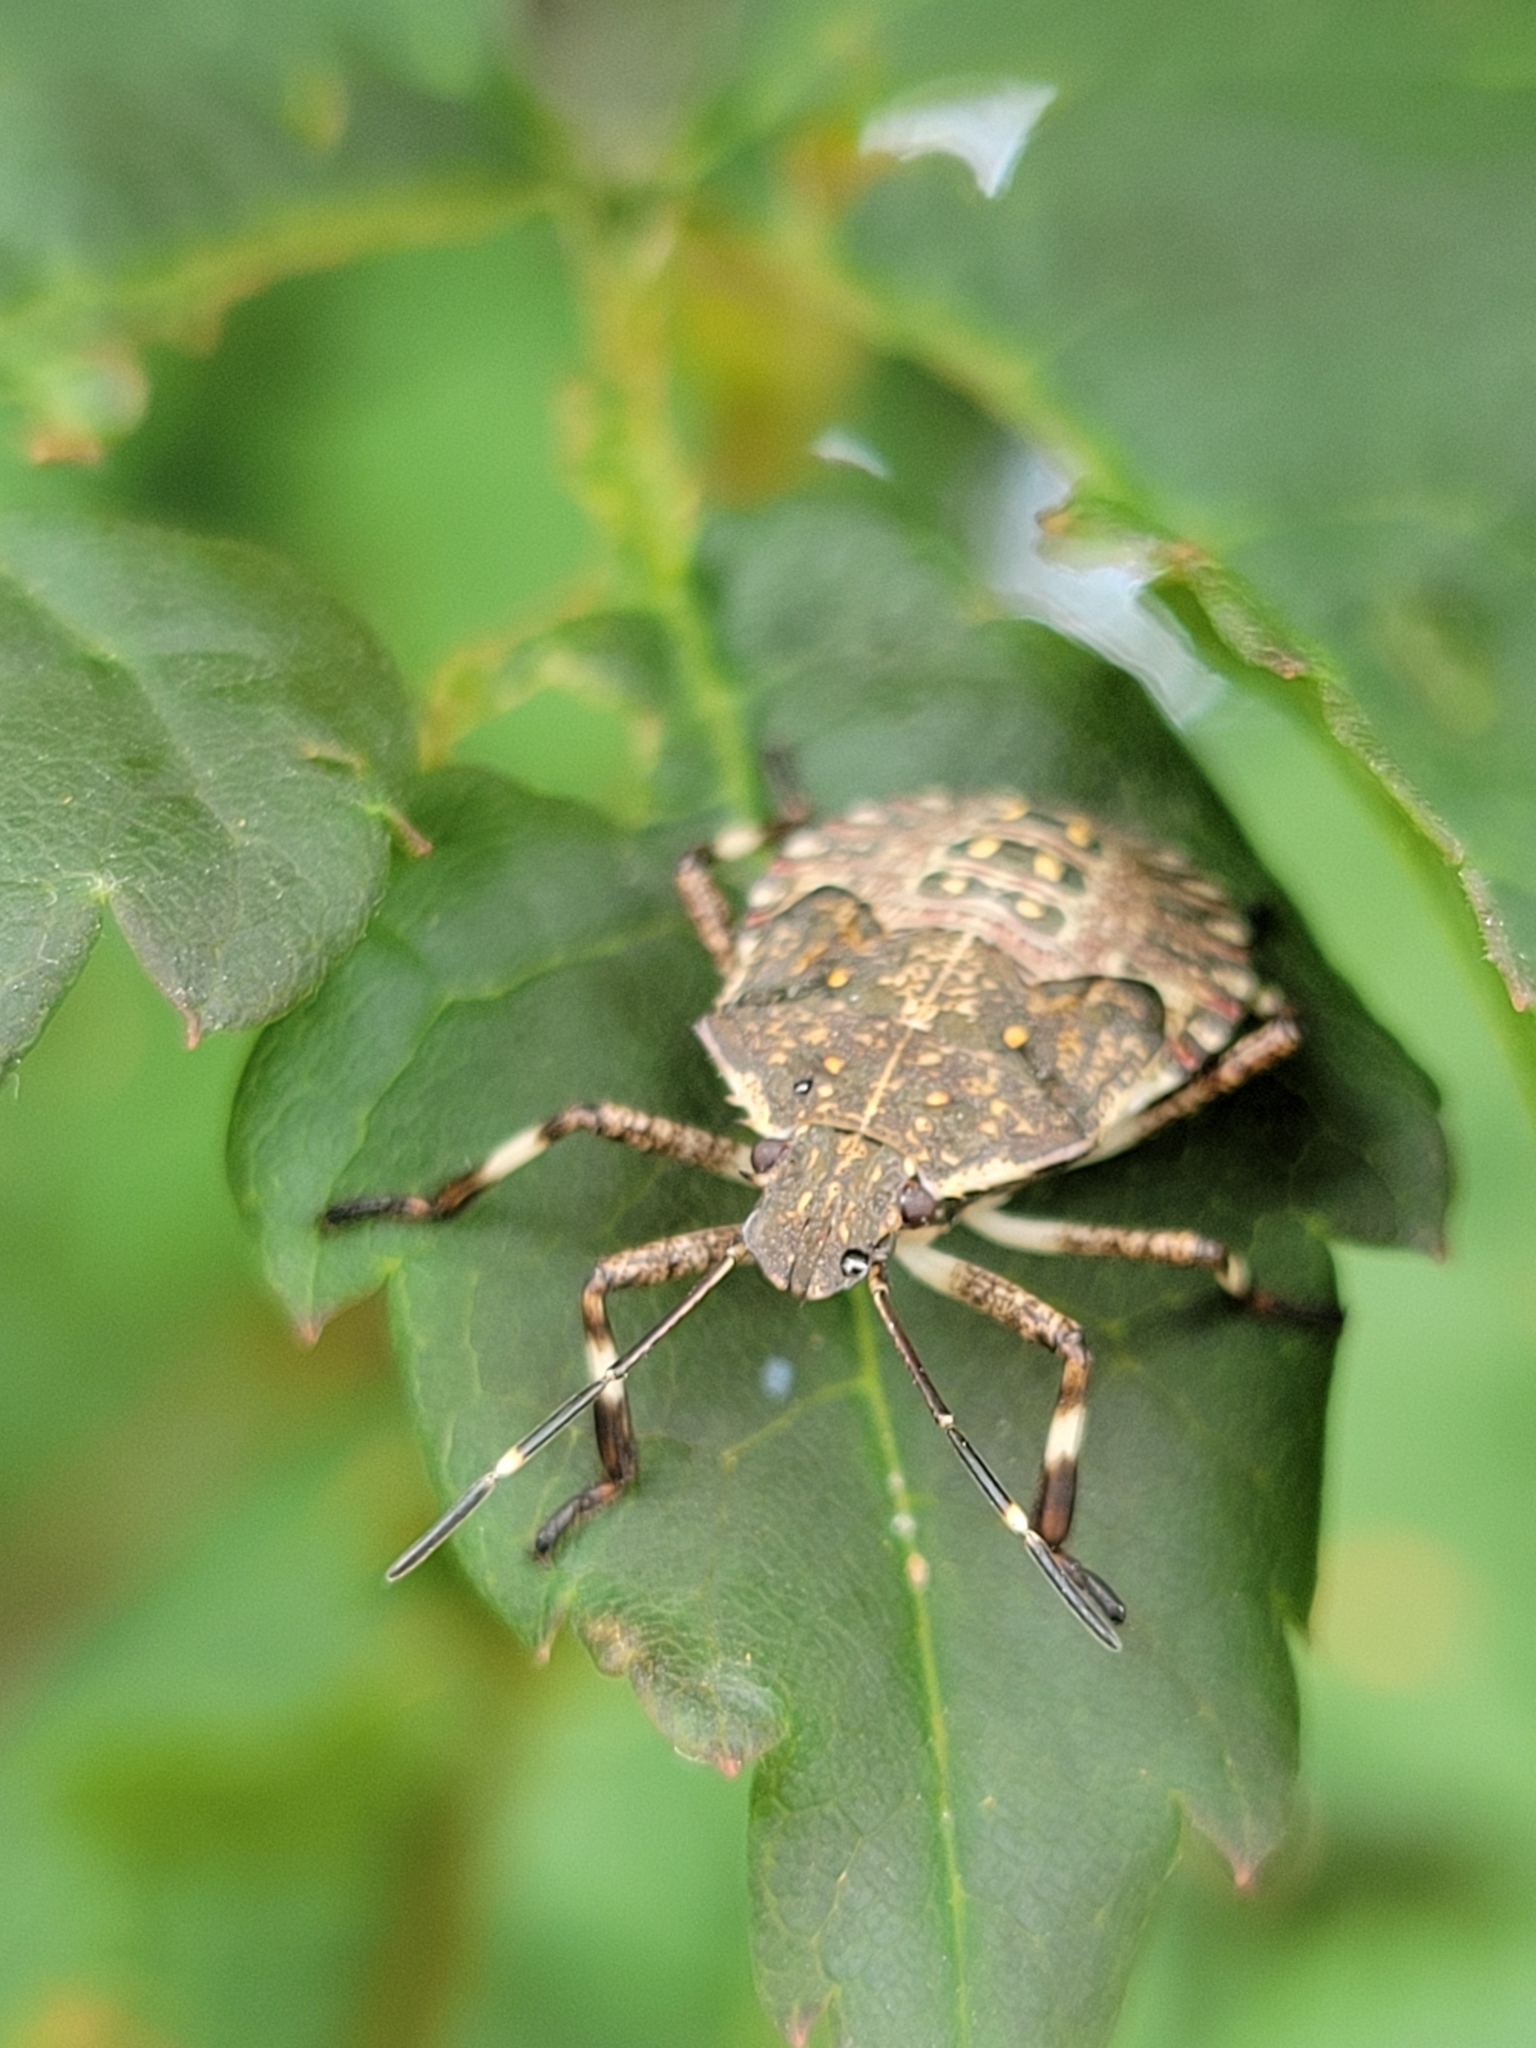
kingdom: Animalia
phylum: Arthropoda
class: Insecta
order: Hemiptera
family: Pentatomidae
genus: Halyomorpha
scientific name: Halyomorpha halys
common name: Brown marmorated stink bug
